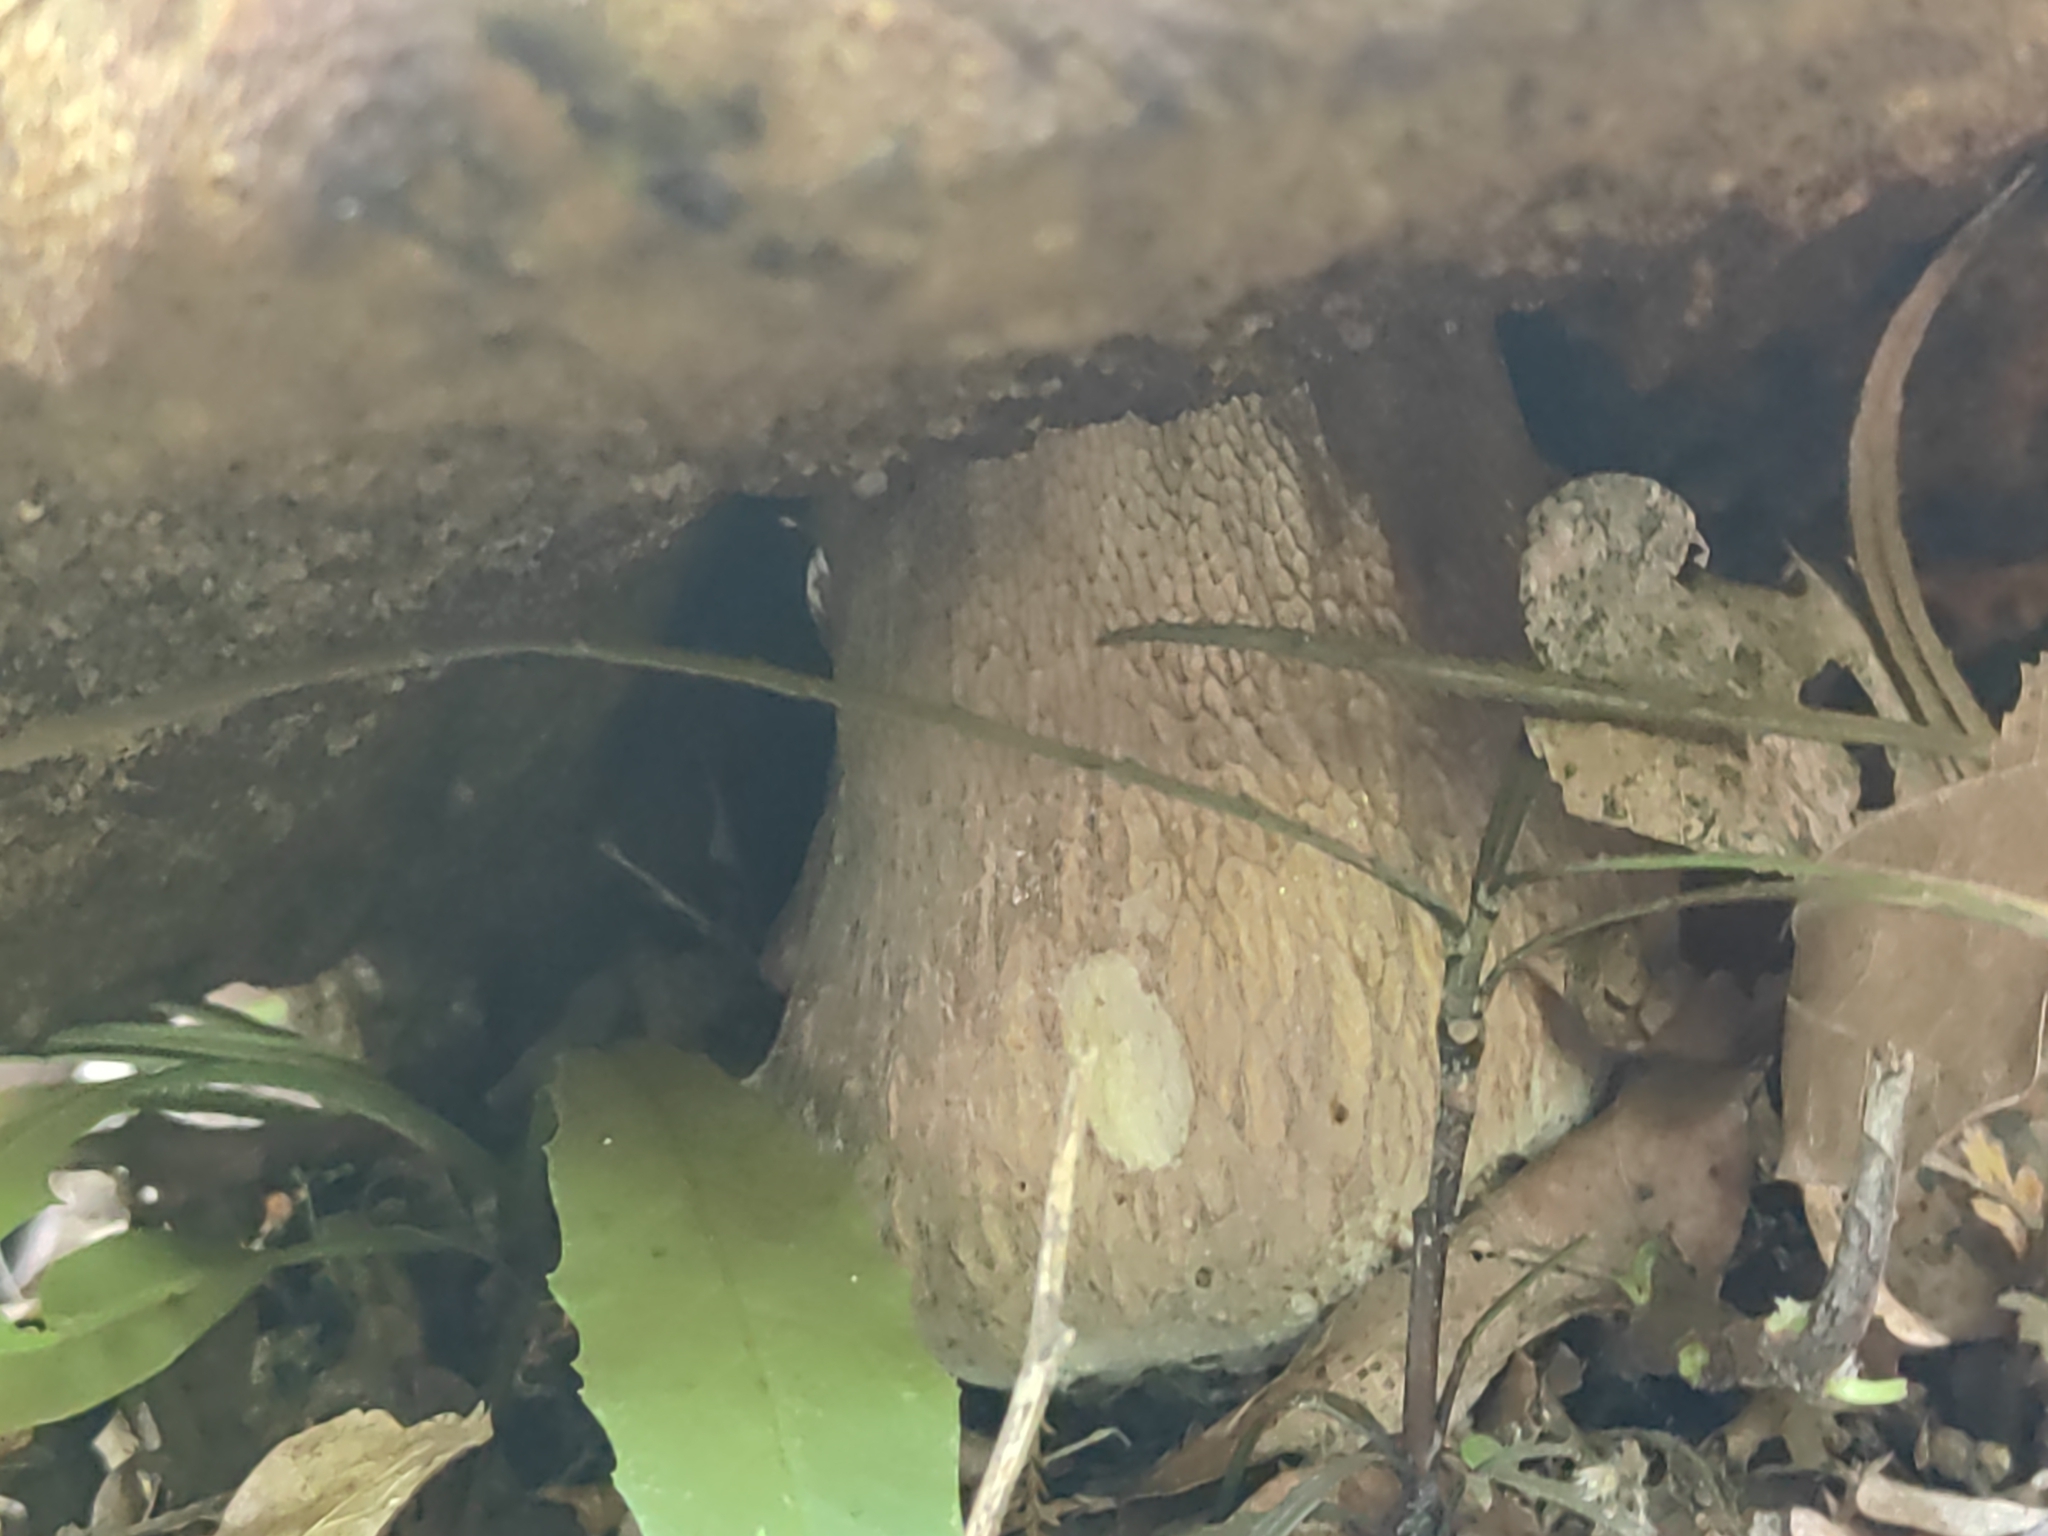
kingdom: Fungi
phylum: Basidiomycota
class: Agaricomycetes
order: Boletales
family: Boletaceae
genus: Boletus
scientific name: Boletus edulis
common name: Cep
